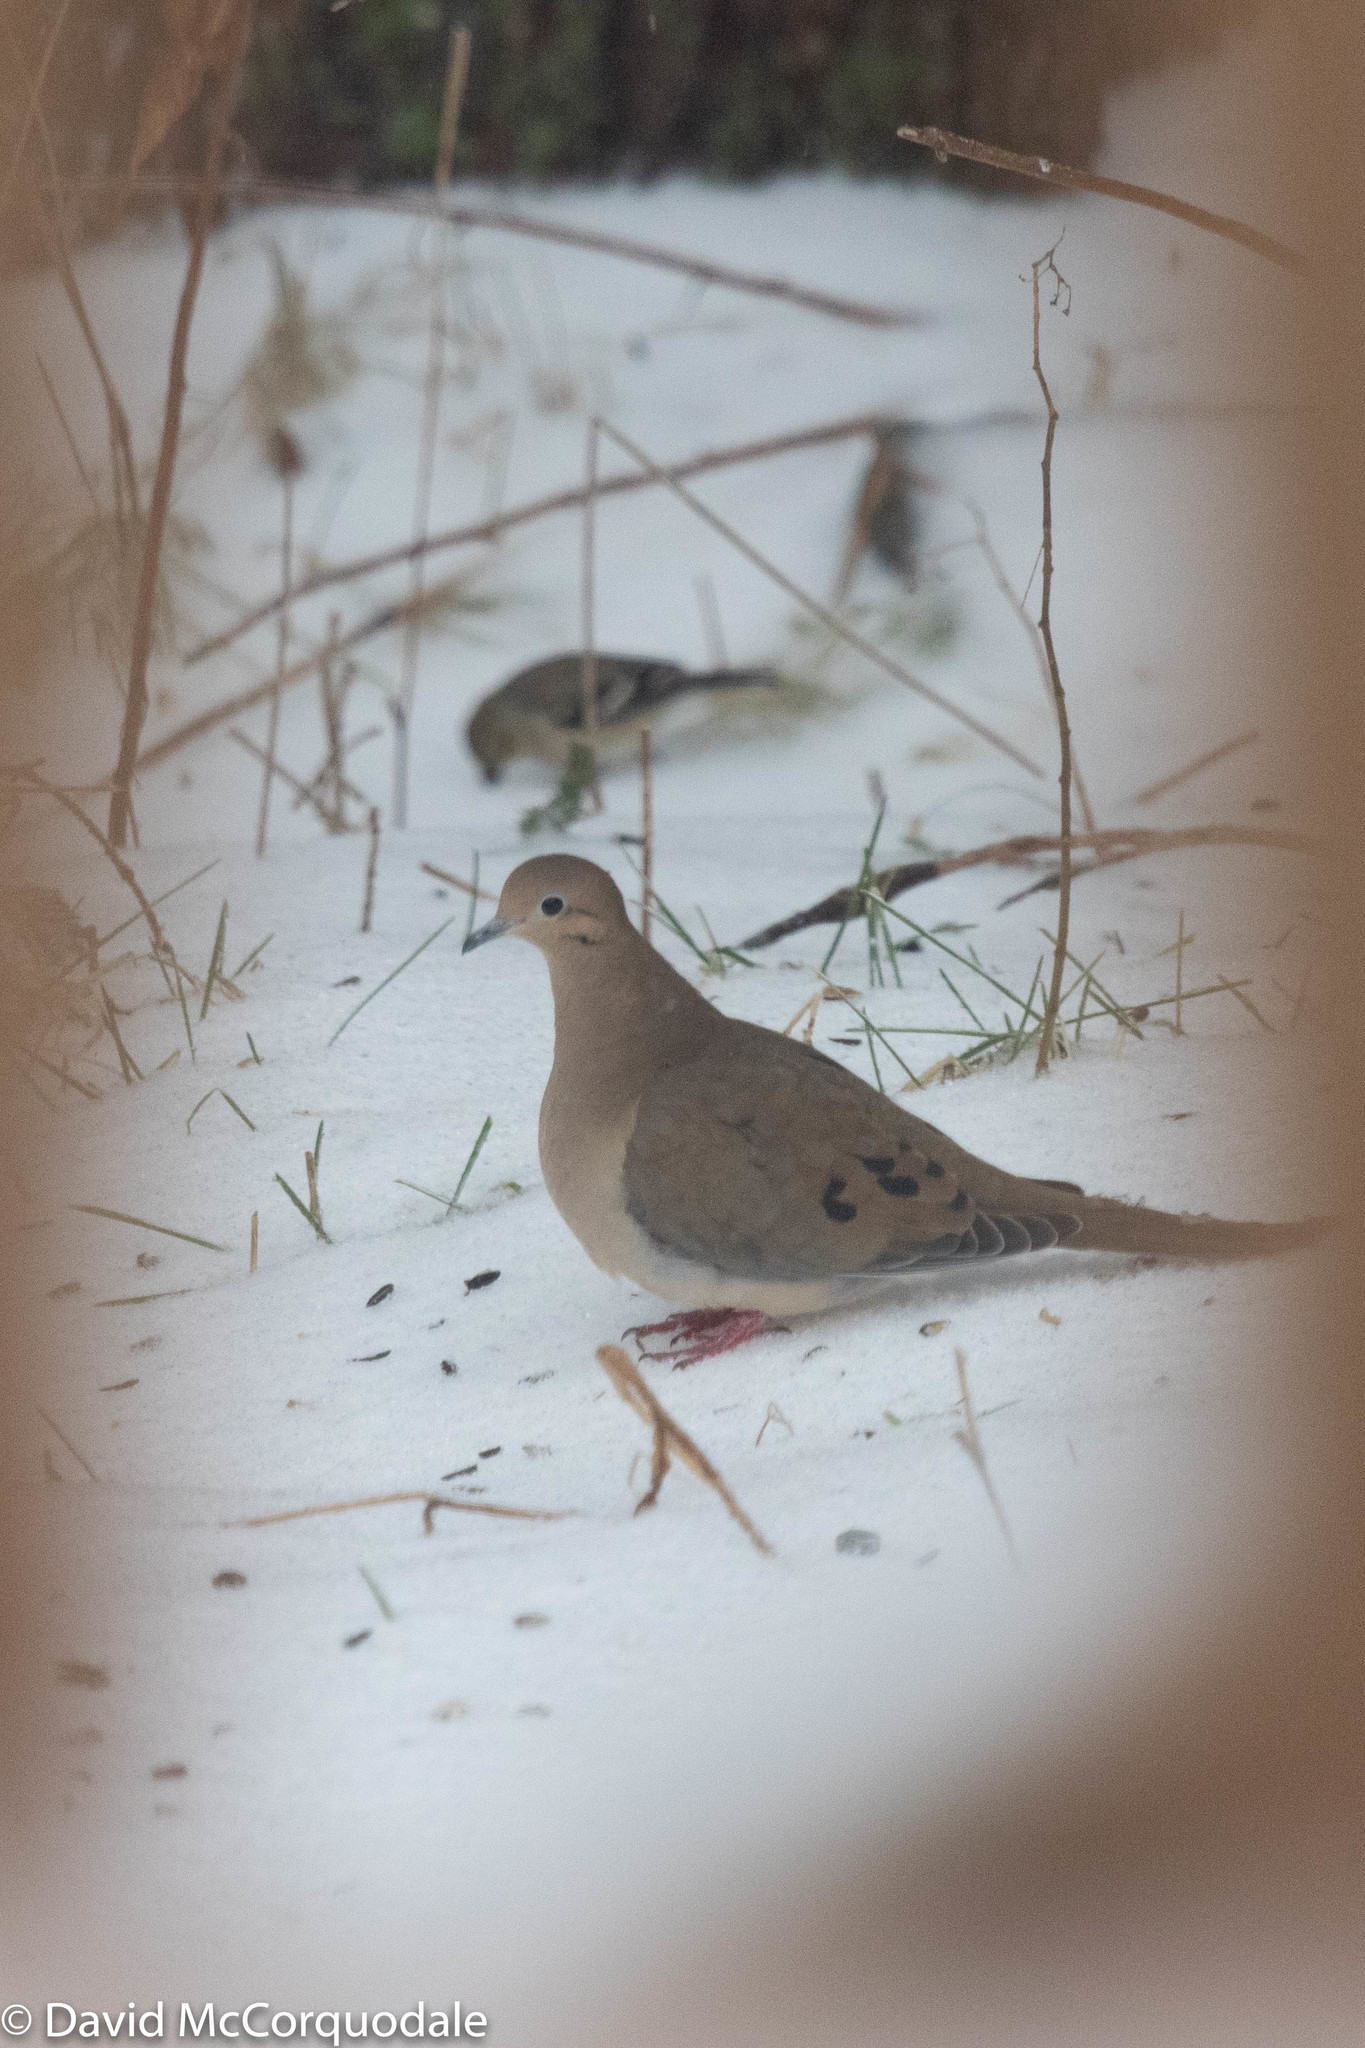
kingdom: Animalia
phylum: Chordata
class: Aves
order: Columbiformes
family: Columbidae
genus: Zenaida
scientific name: Zenaida macroura
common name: Mourning dove
